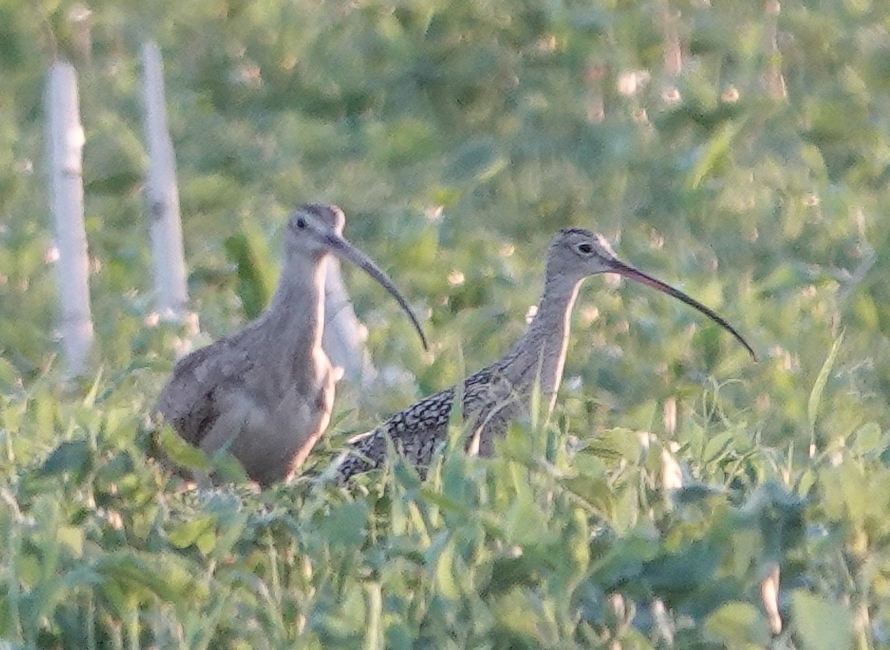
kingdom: Animalia
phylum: Chordata
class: Aves
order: Charadriiformes
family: Scolopacidae
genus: Numenius
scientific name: Numenius americanus
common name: Long-billed curlew
